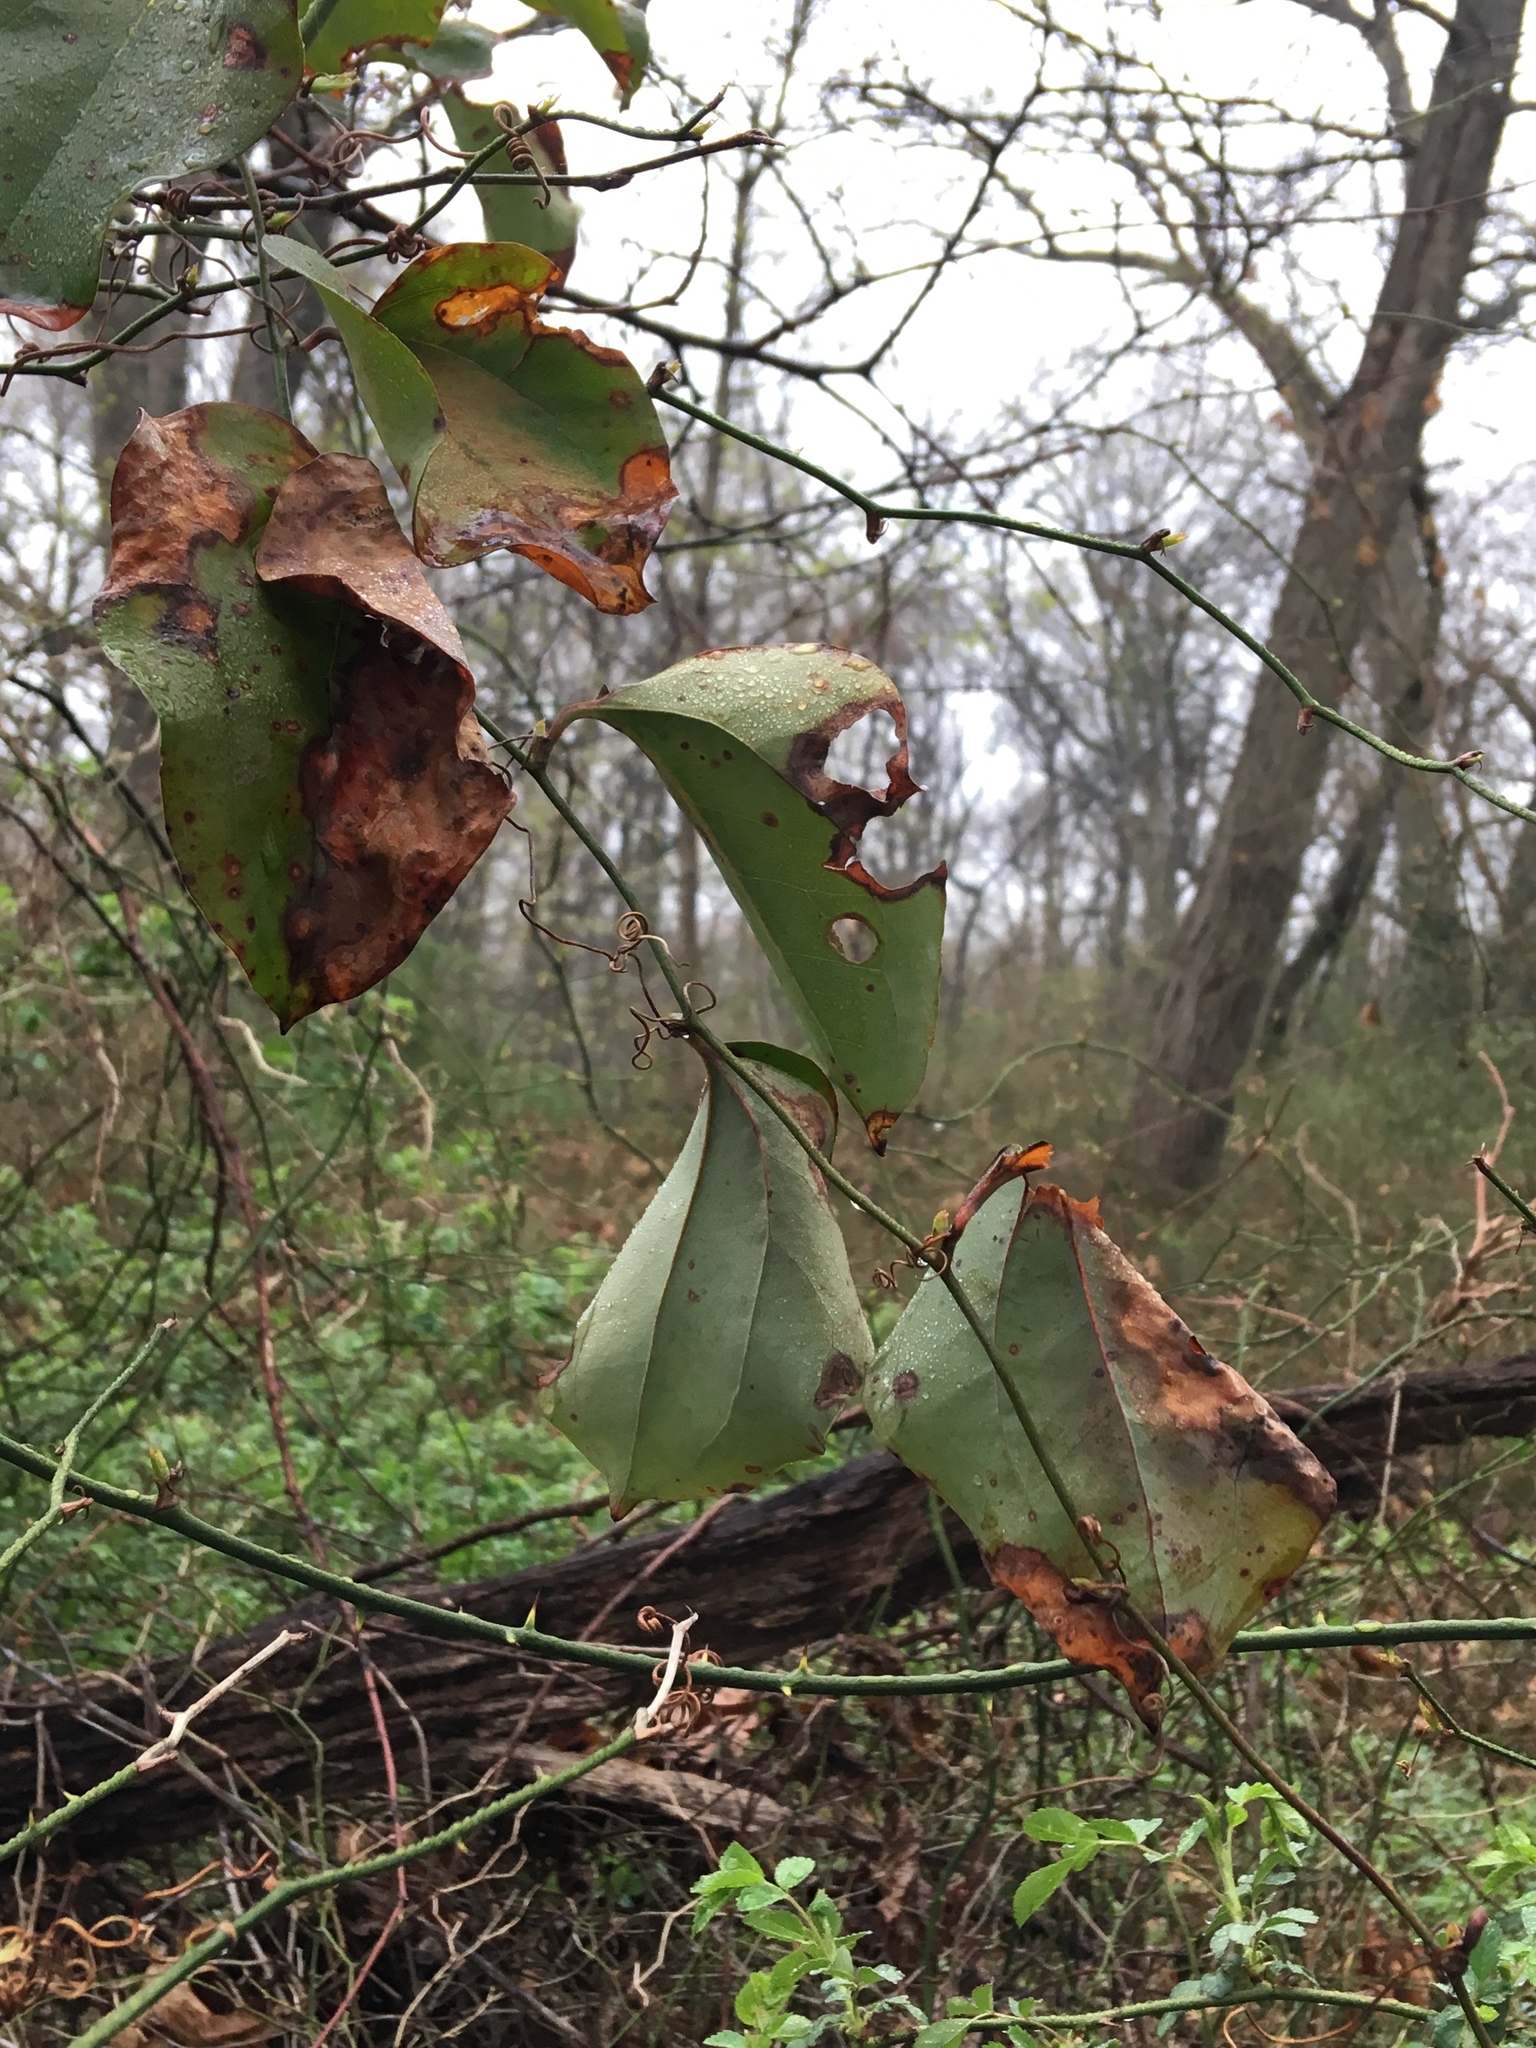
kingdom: Plantae
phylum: Tracheophyta
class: Liliopsida
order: Liliales
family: Smilacaceae
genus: Smilax
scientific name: Smilax glauca
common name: Cat greenbrier
